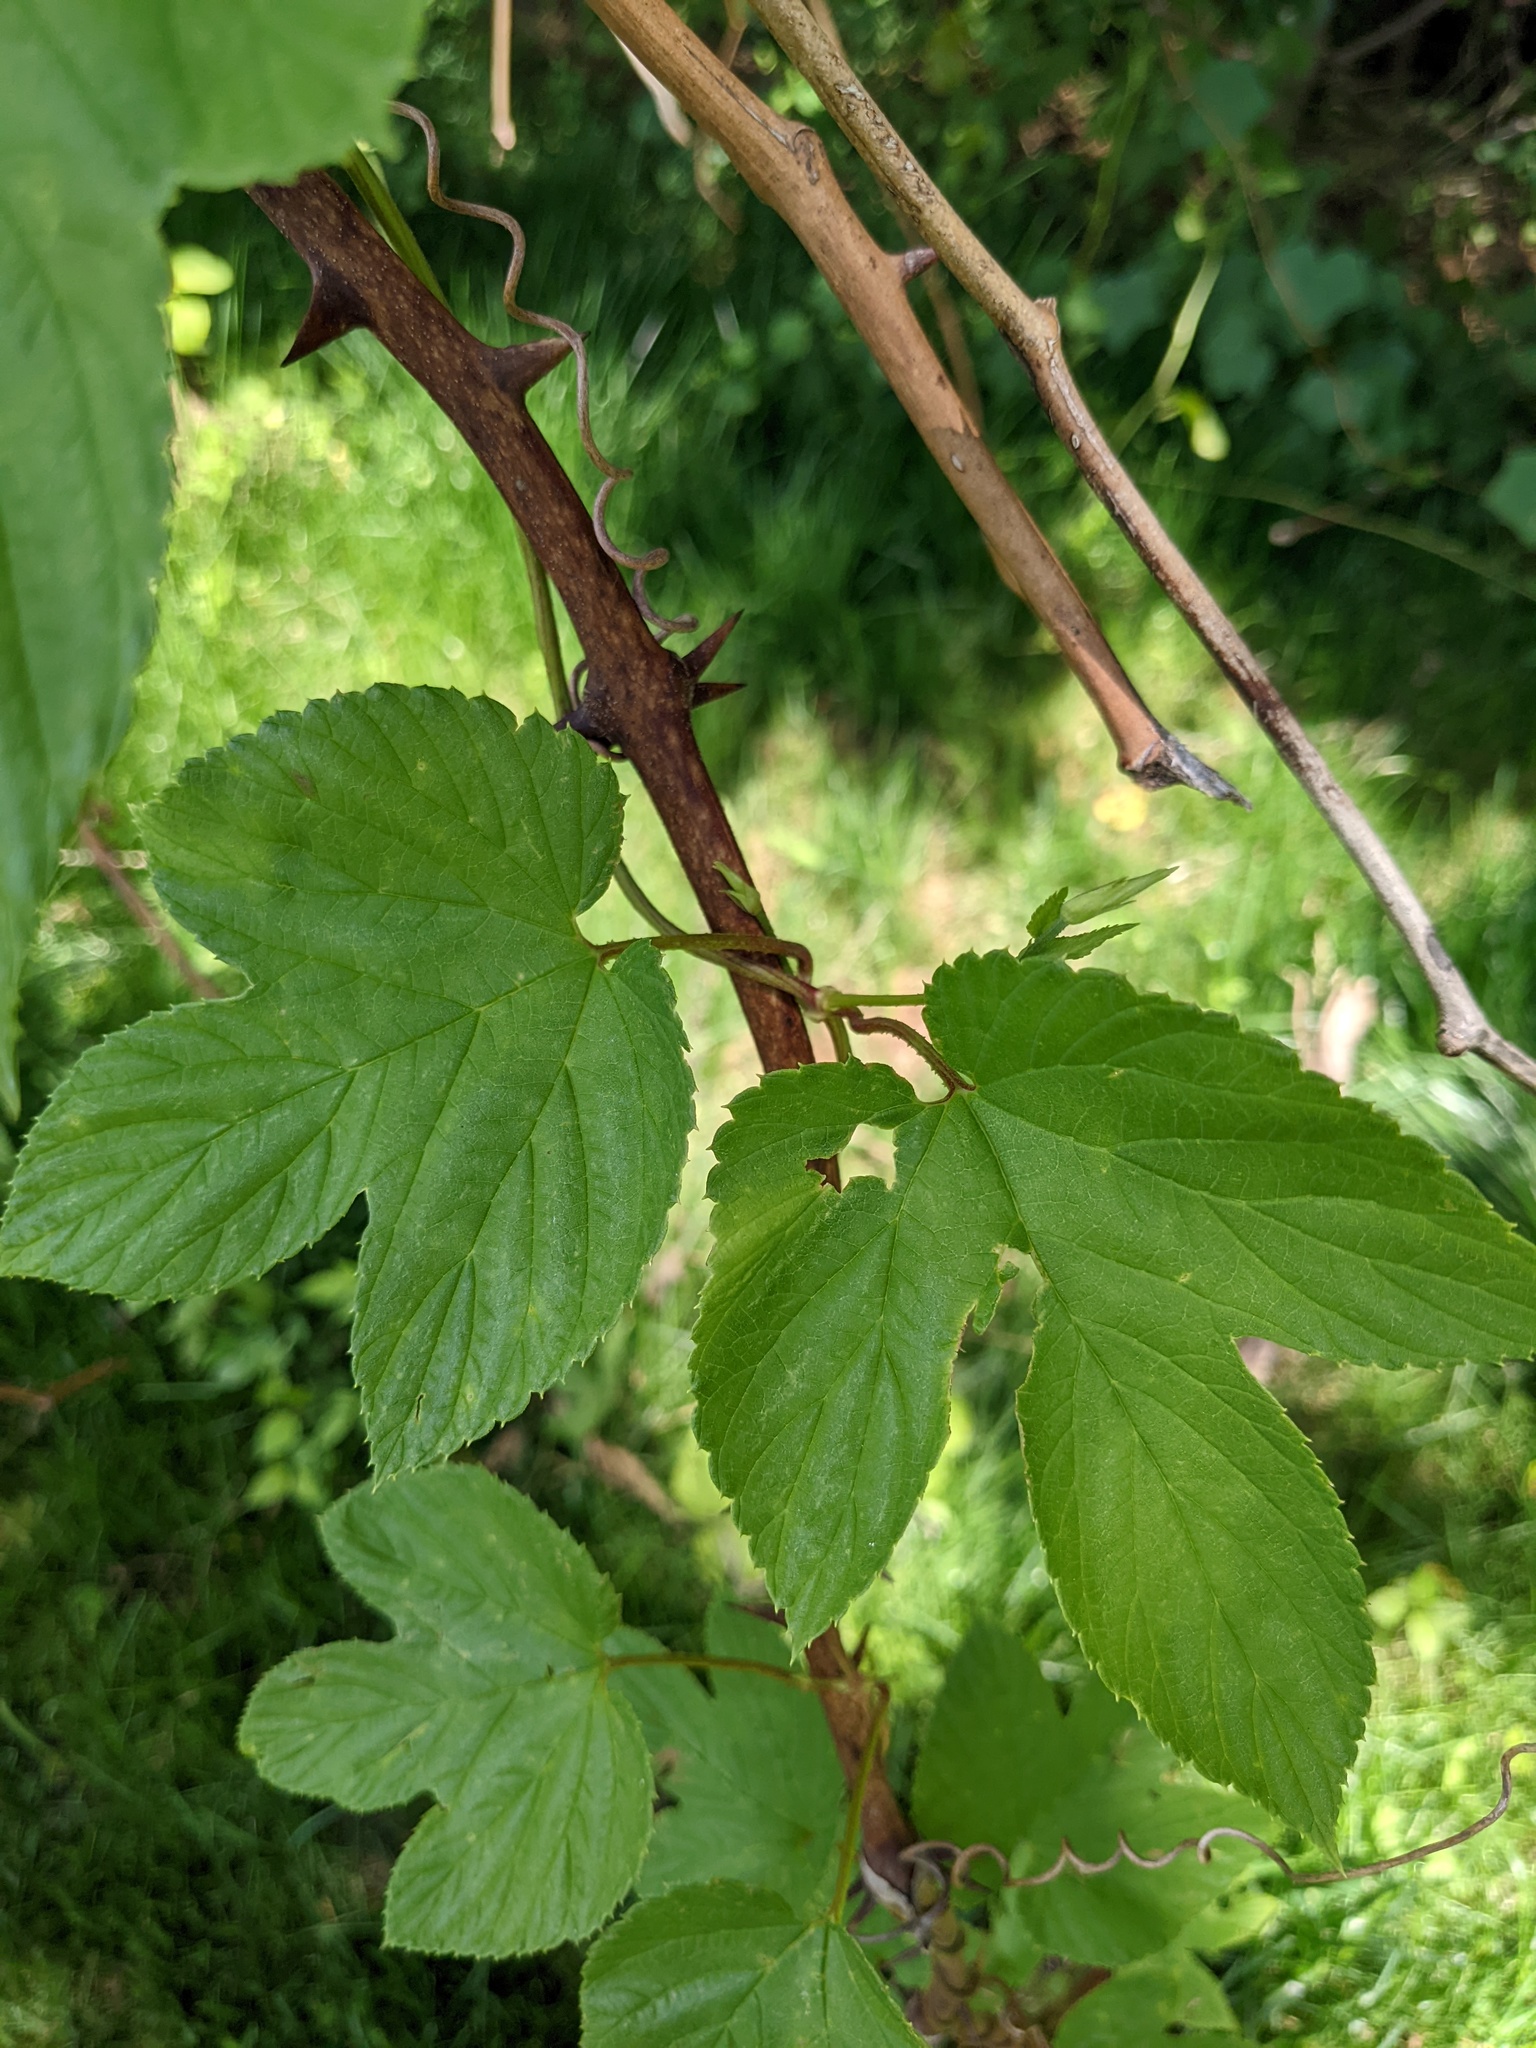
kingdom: Plantae
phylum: Tracheophyta
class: Magnoliopsida
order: Rosales
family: Cannabaceae
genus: Humulus
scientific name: Humulus lupulus
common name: Hop
